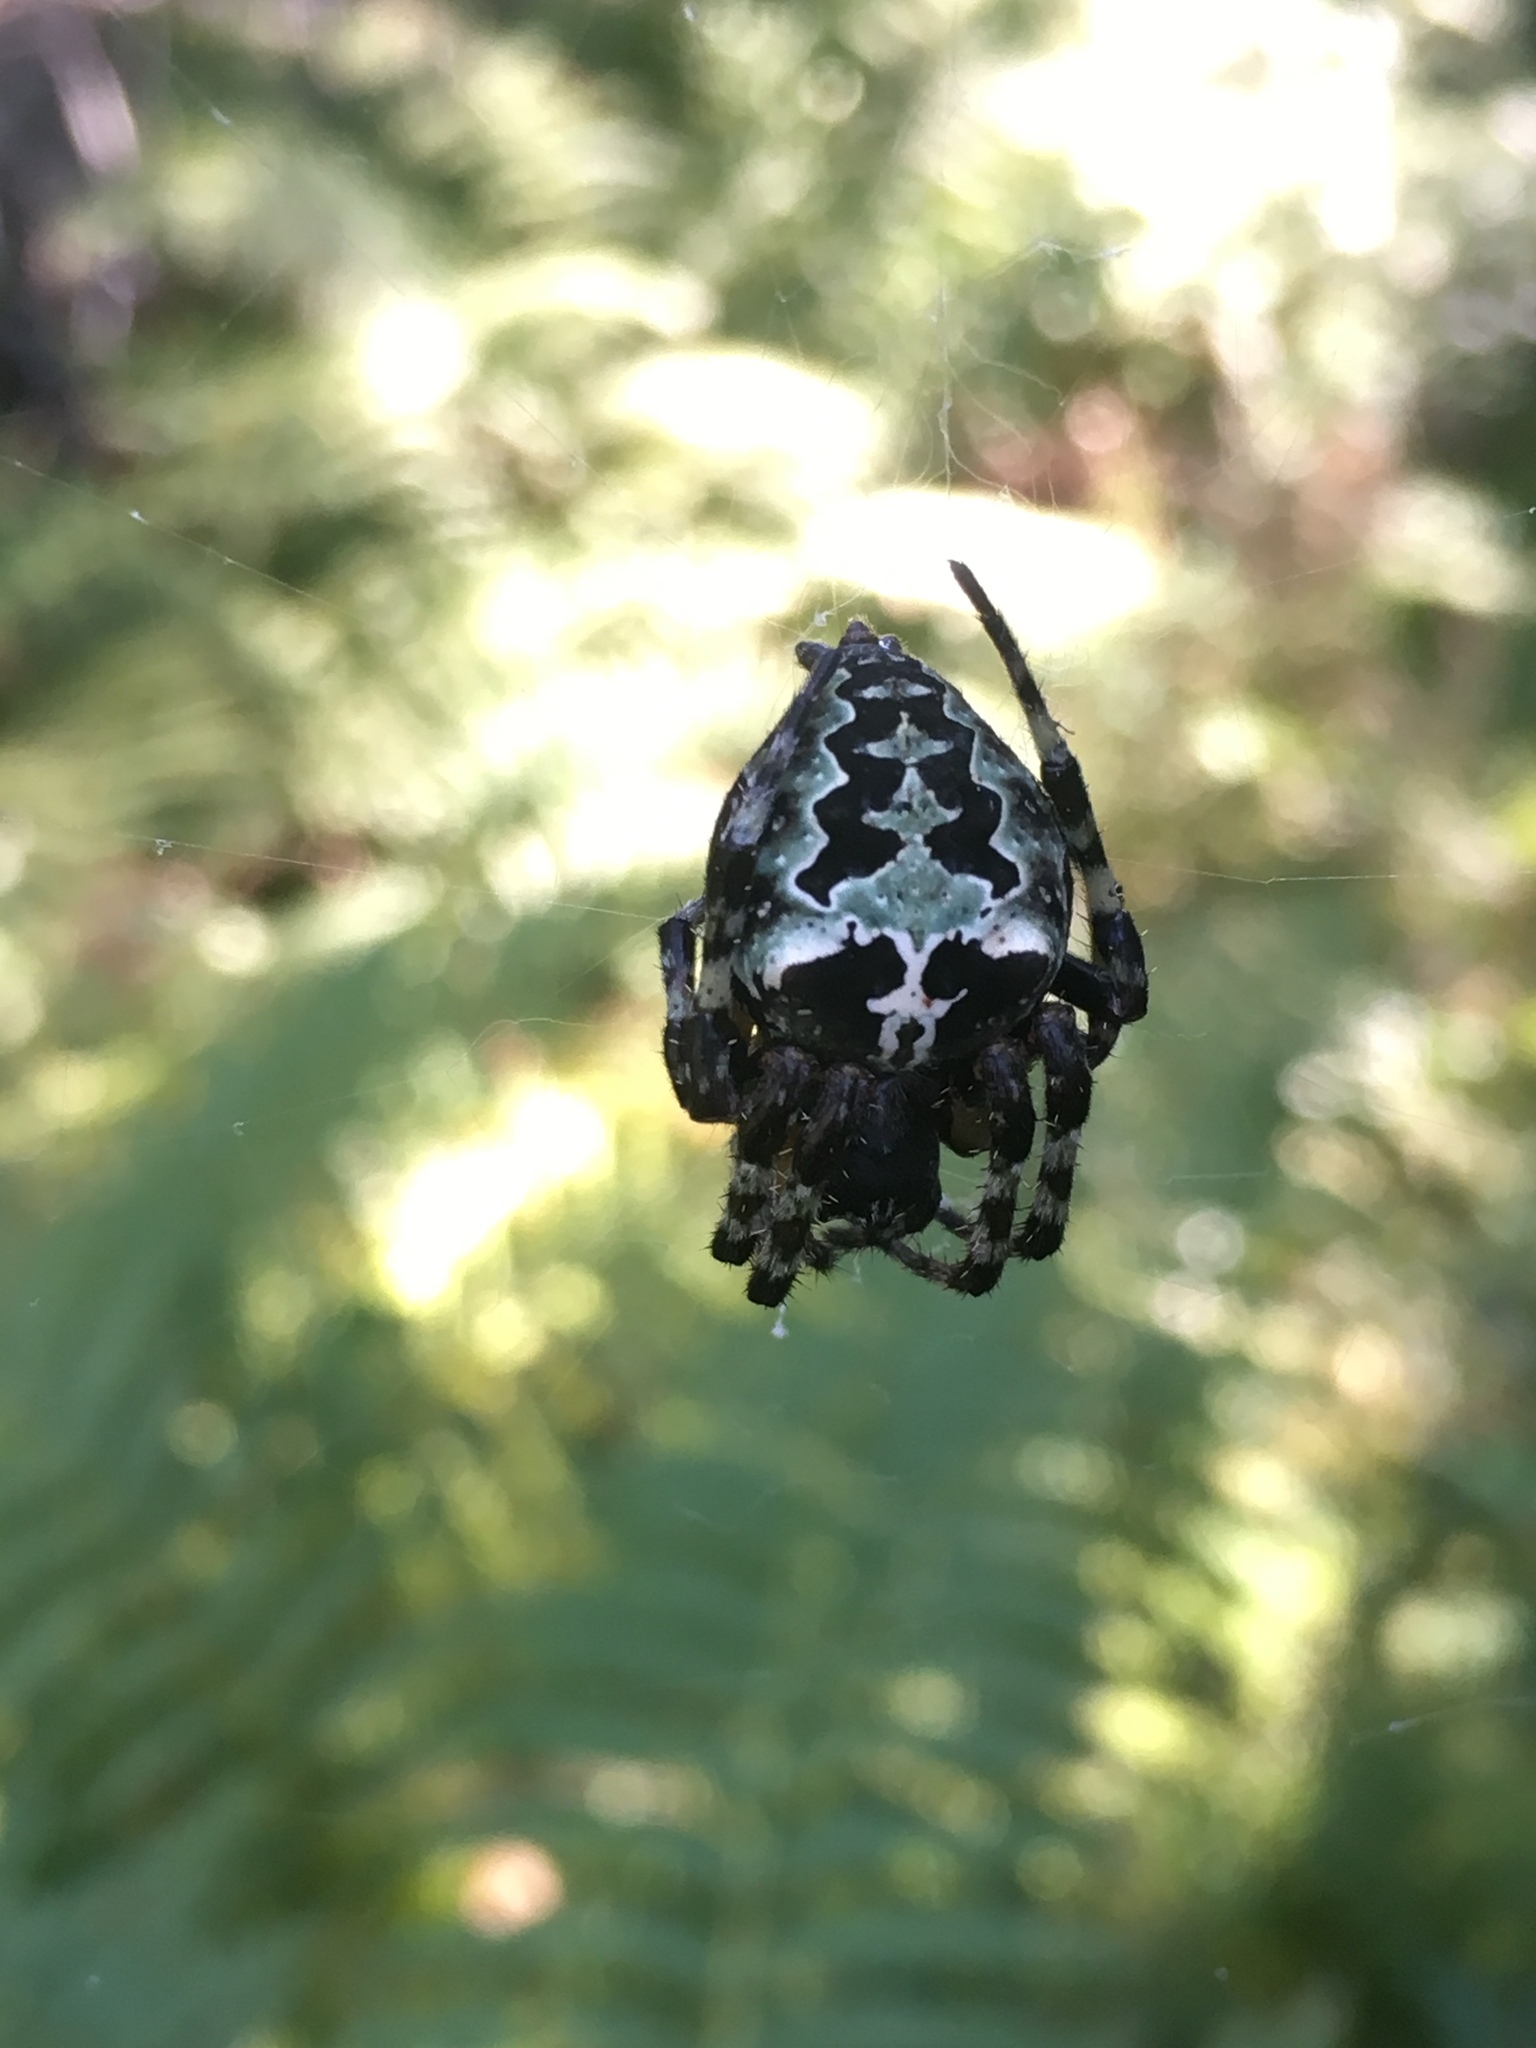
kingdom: Animalia
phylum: Arthropoda
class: Arachnida
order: Araneae
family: Araneidae
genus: Araneus
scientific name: Araneus bicentenarius
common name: Giant lichen orbweaver
